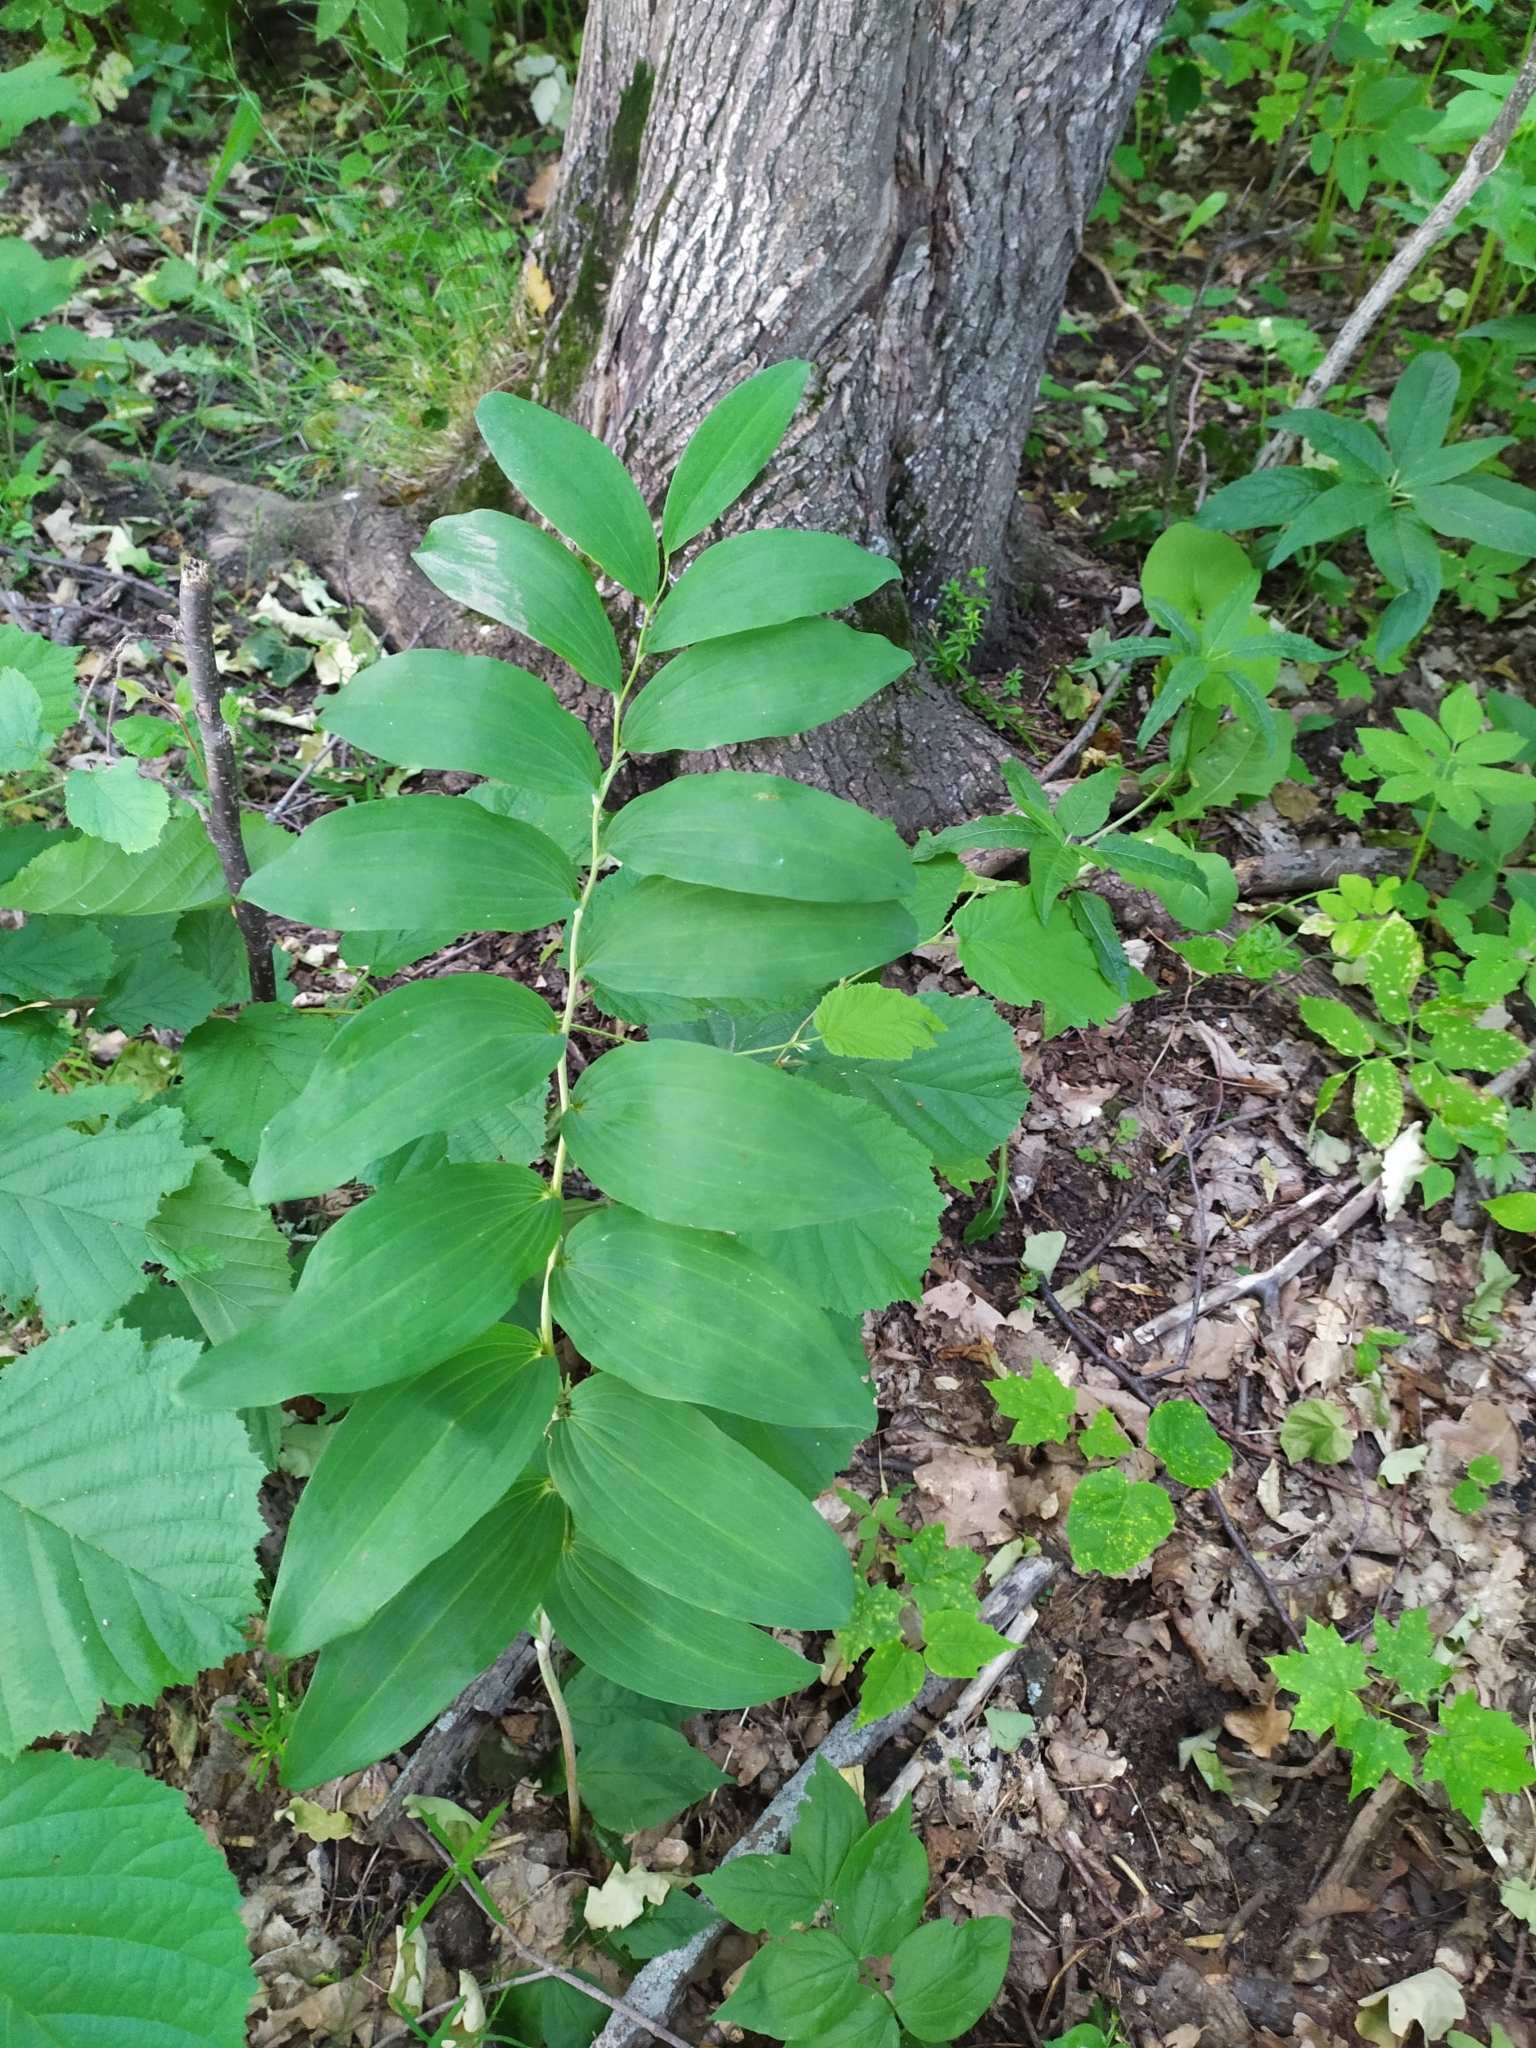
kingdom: Plantae
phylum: Tracheophyta
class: Liliopsida
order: Asparagales
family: Asparagaceae
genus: Polygonatum
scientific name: Polygonatum multiflorum
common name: Solomon's-seal
